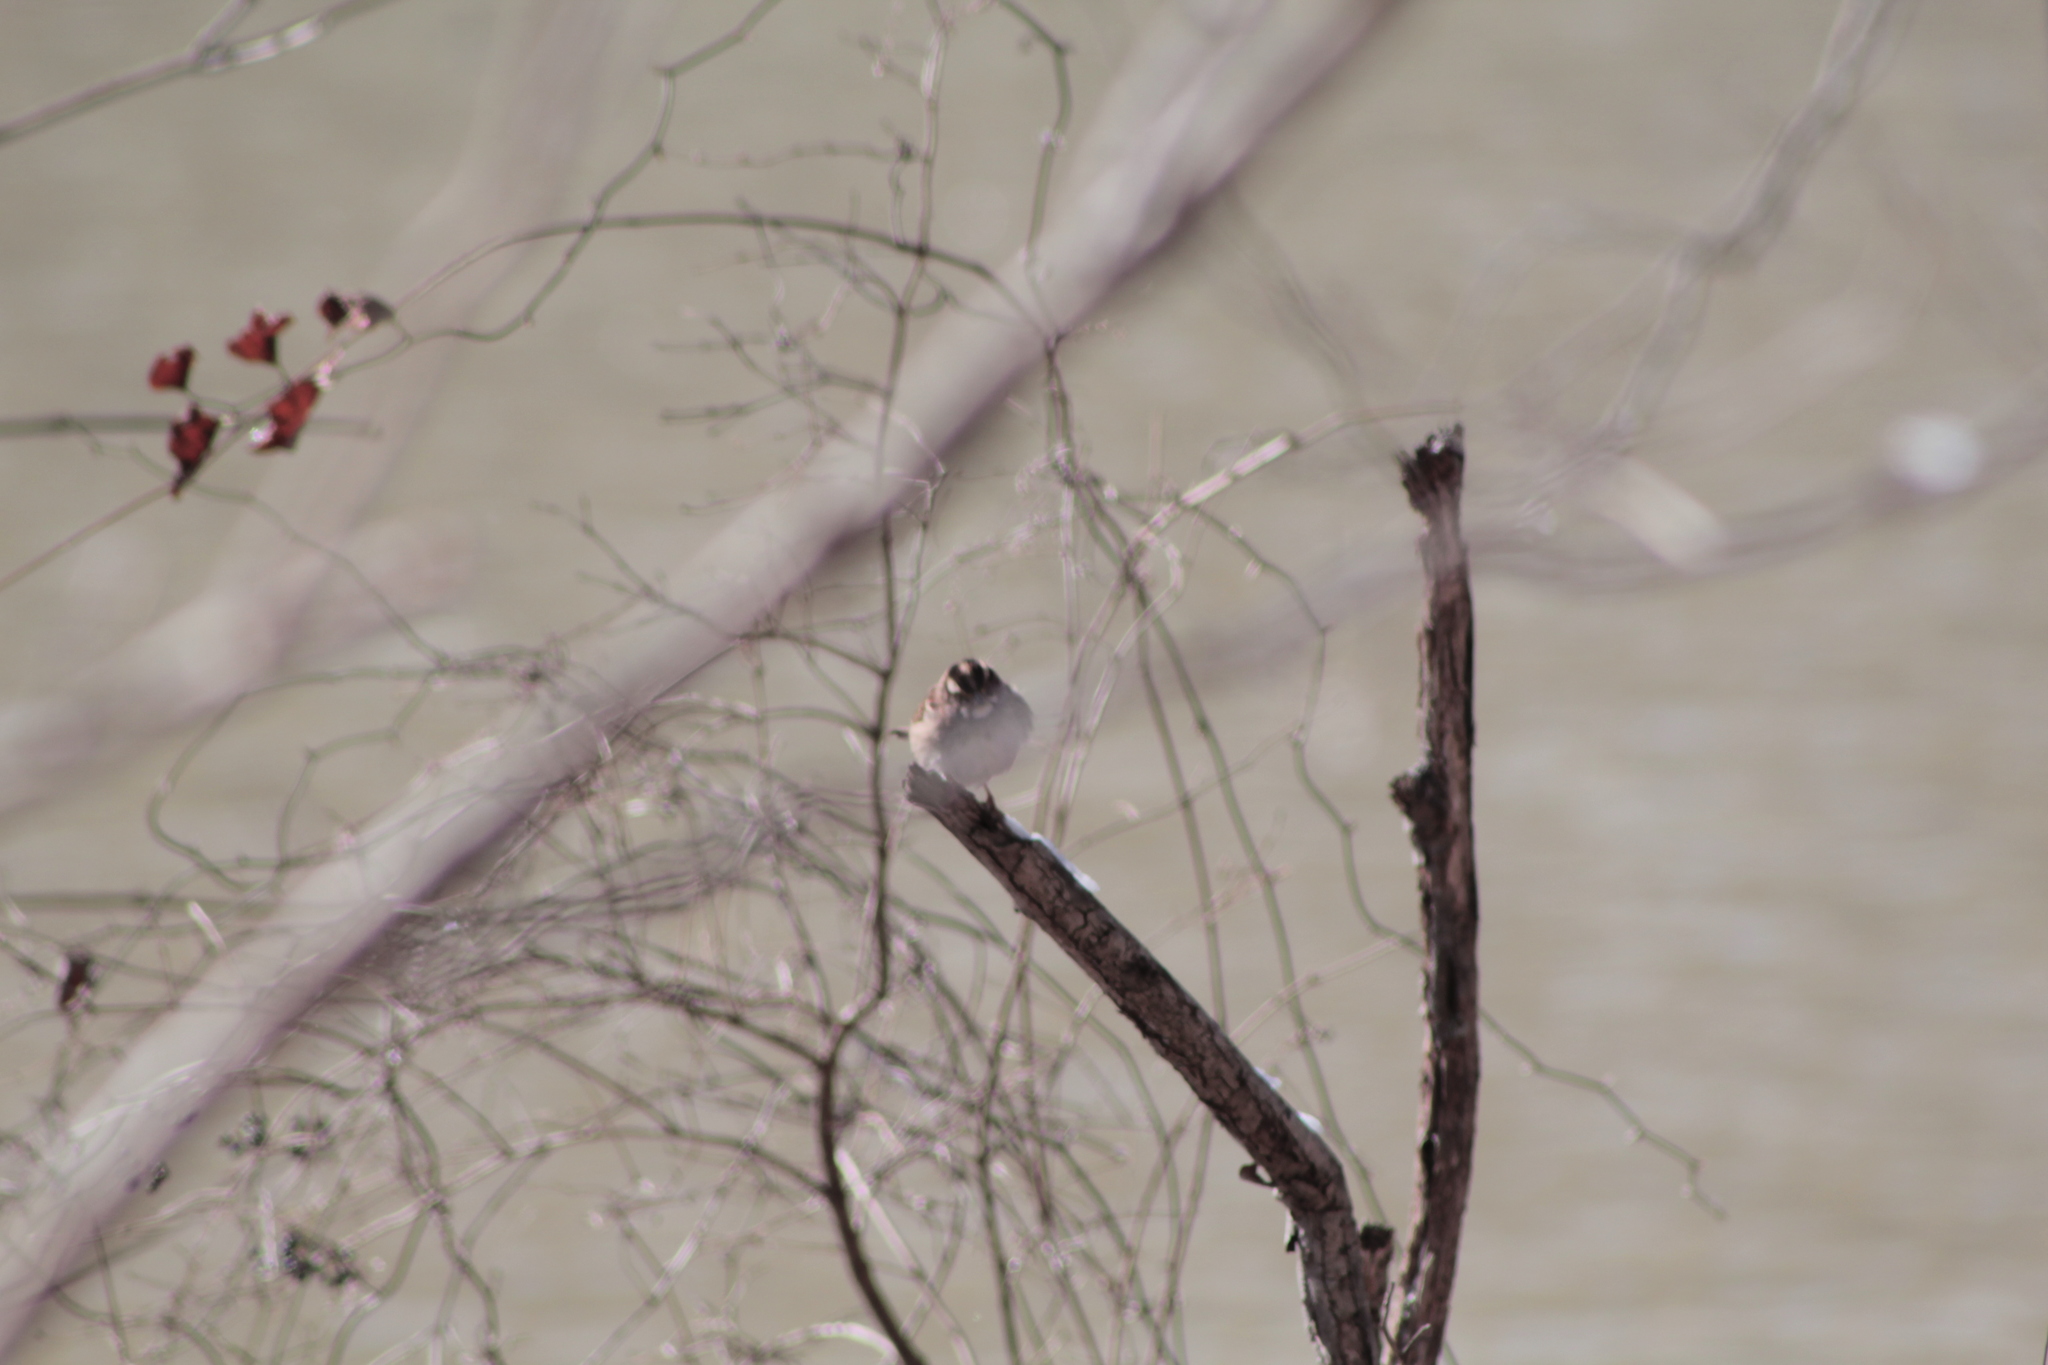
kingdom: Animalia
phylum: Chordata
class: Aves
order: Passeriformes
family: Passerellidae
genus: Zonotrichia
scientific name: Zonotrichia albicollis
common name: White-throated sparrow
